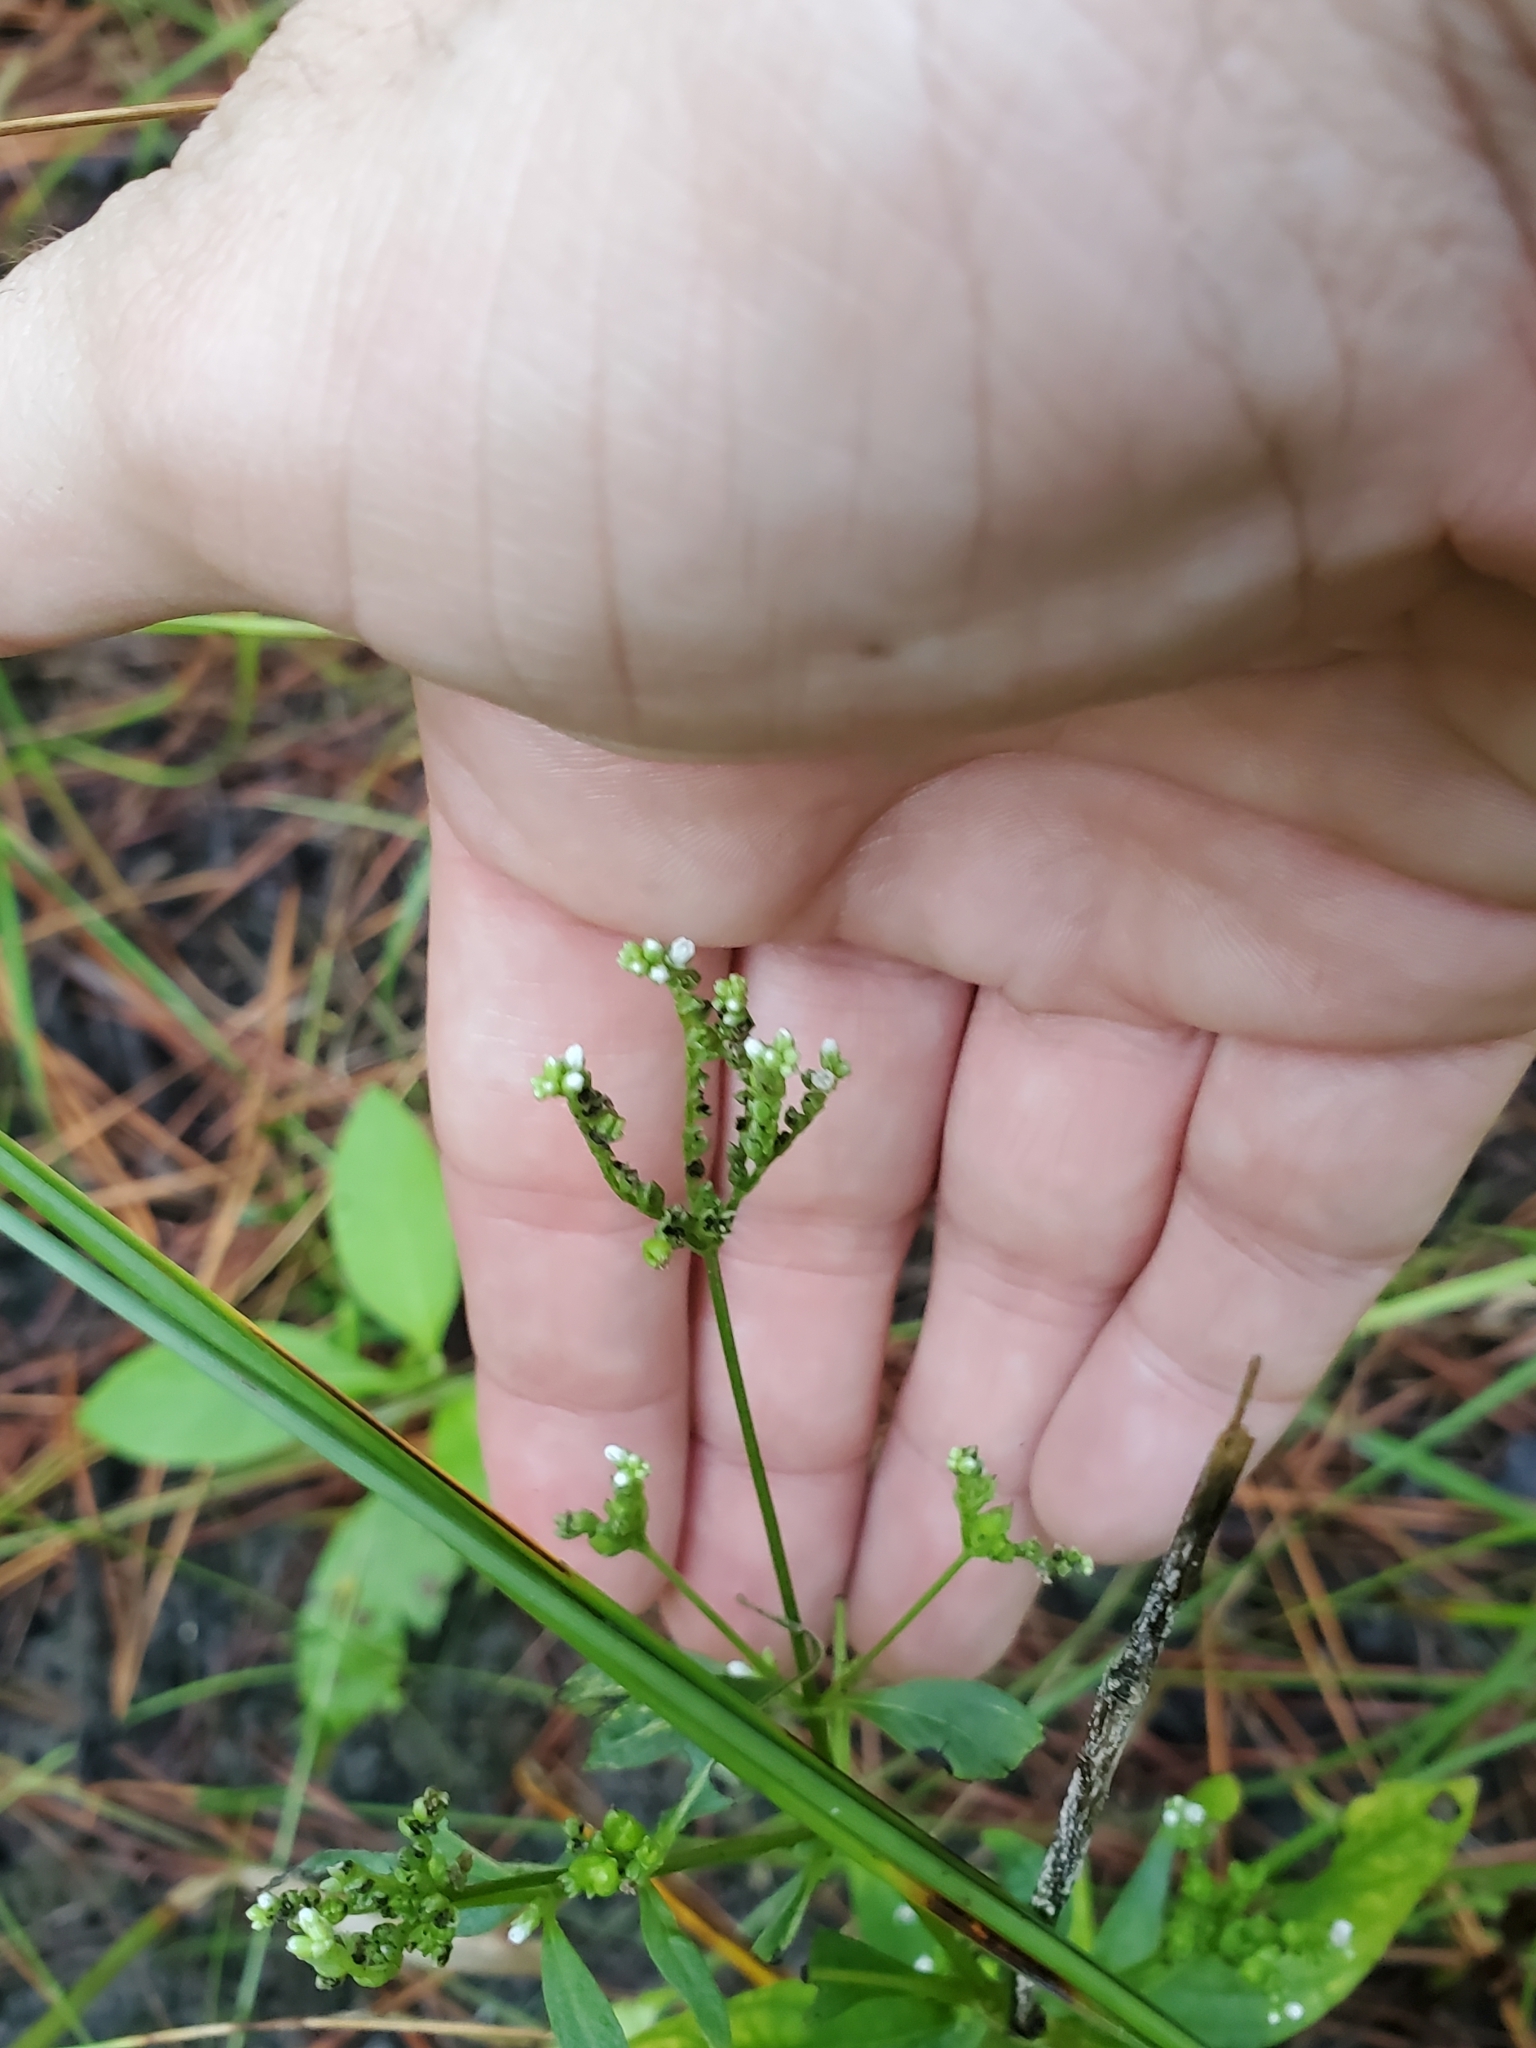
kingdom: Plantae
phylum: Tracheophyta
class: Magnoliopsida
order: Gentianales
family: Loganiaceae
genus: Mitreola
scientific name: Mitreola petiolata
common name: Lax hornpod
